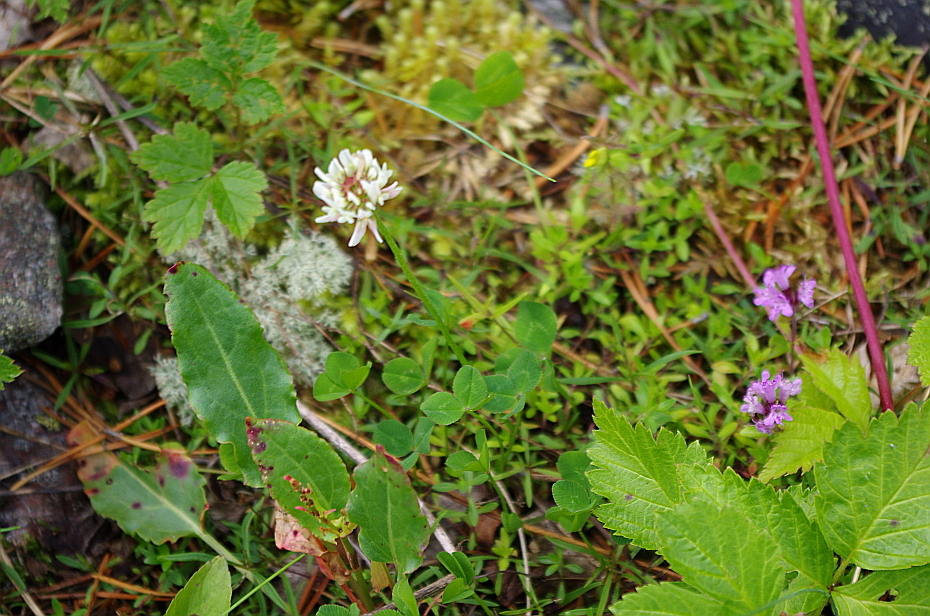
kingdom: Plantae
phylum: Tracheophyta
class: Magnoliopsida
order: Fabales
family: Fabaceae
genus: Trifolium
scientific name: Trifolium repens
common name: White clover
